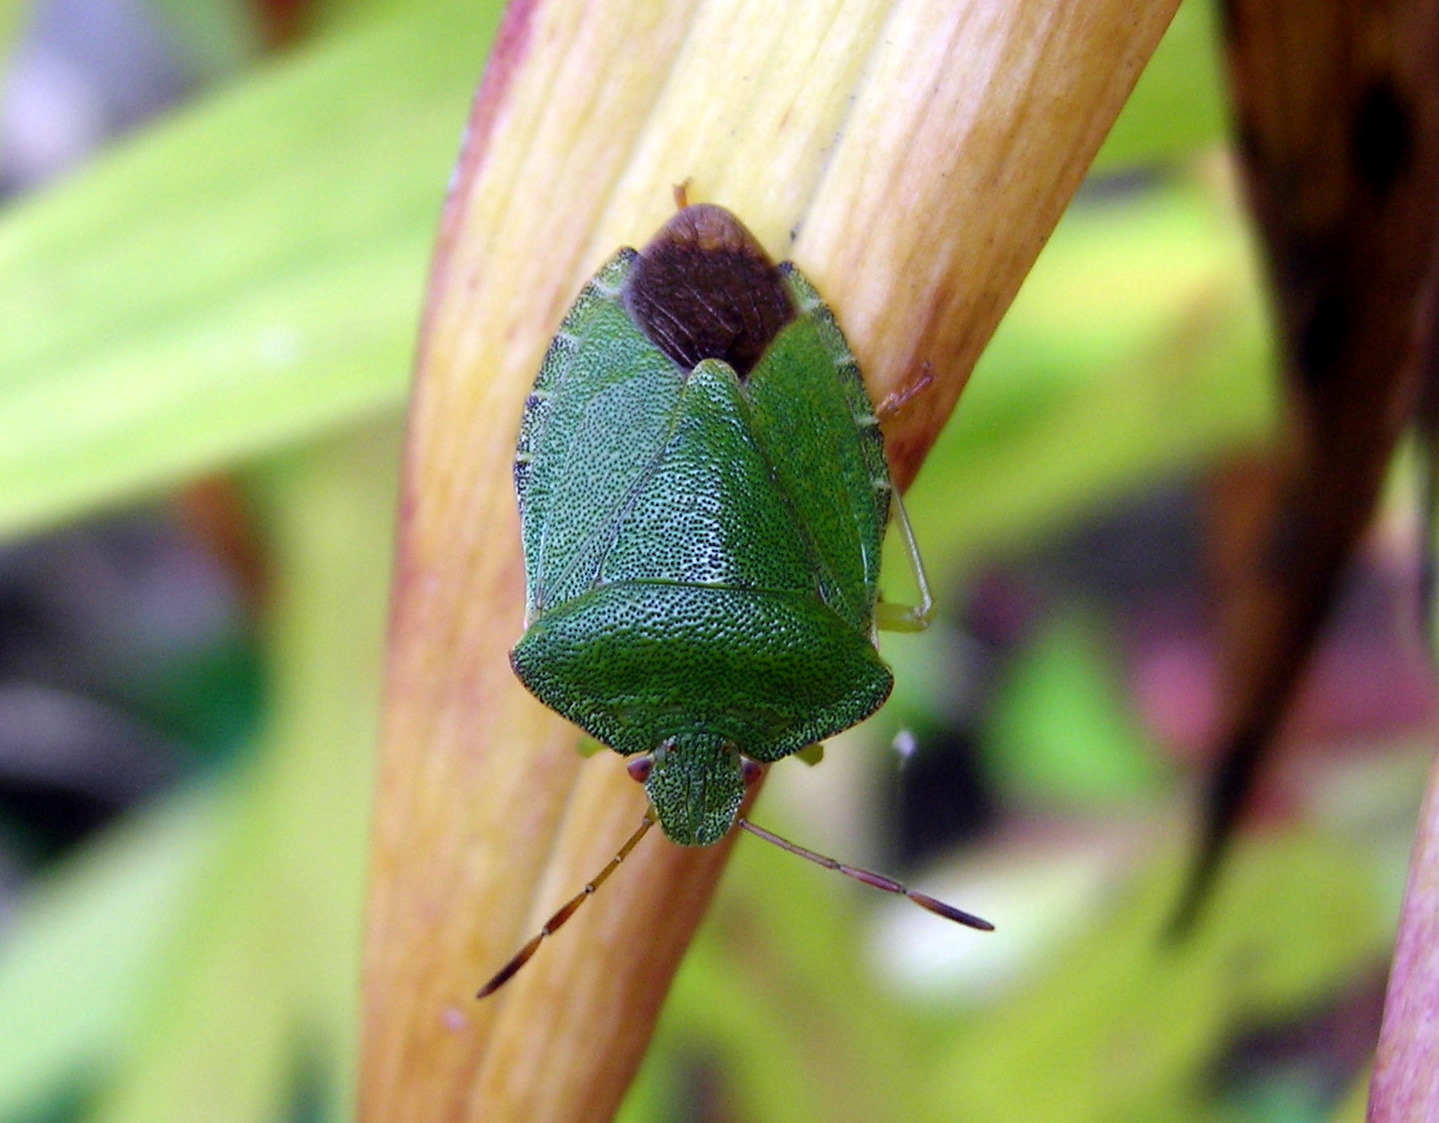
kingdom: Animalia
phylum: Arthropoda
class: Insecta
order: Hemiptera
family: Pentatomidae
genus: Palomena
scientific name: Palomena prasina
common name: Green shieldbug
